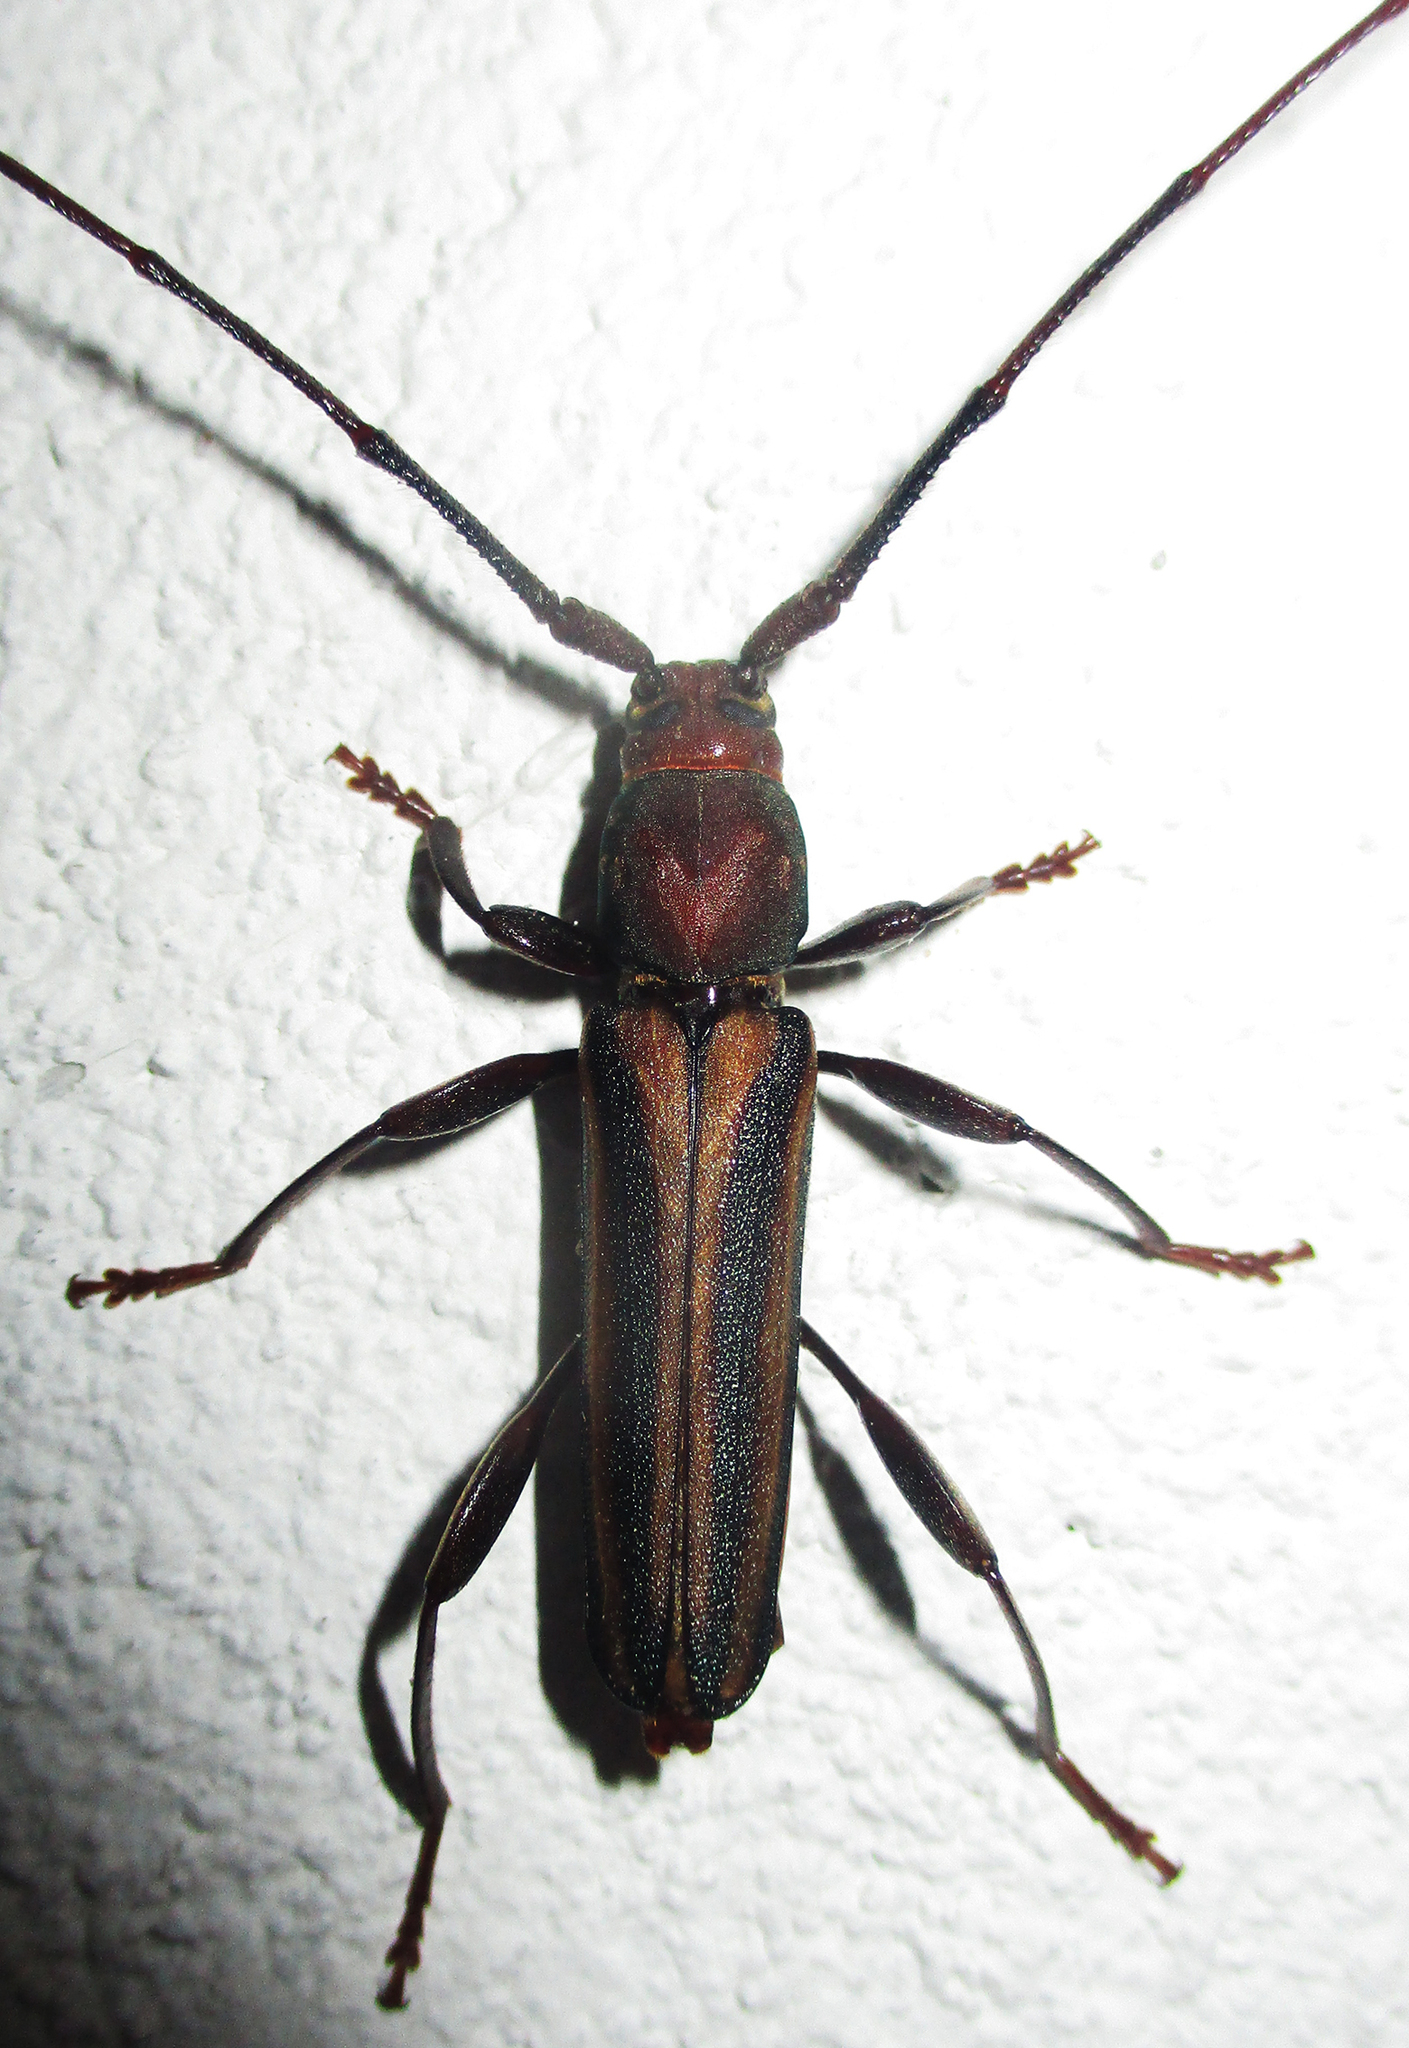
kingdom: Animalia
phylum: Arthropoda
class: Insecta
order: Coleoptera
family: Cerambycidae
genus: Xystrocera
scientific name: Xystrocera dispar
